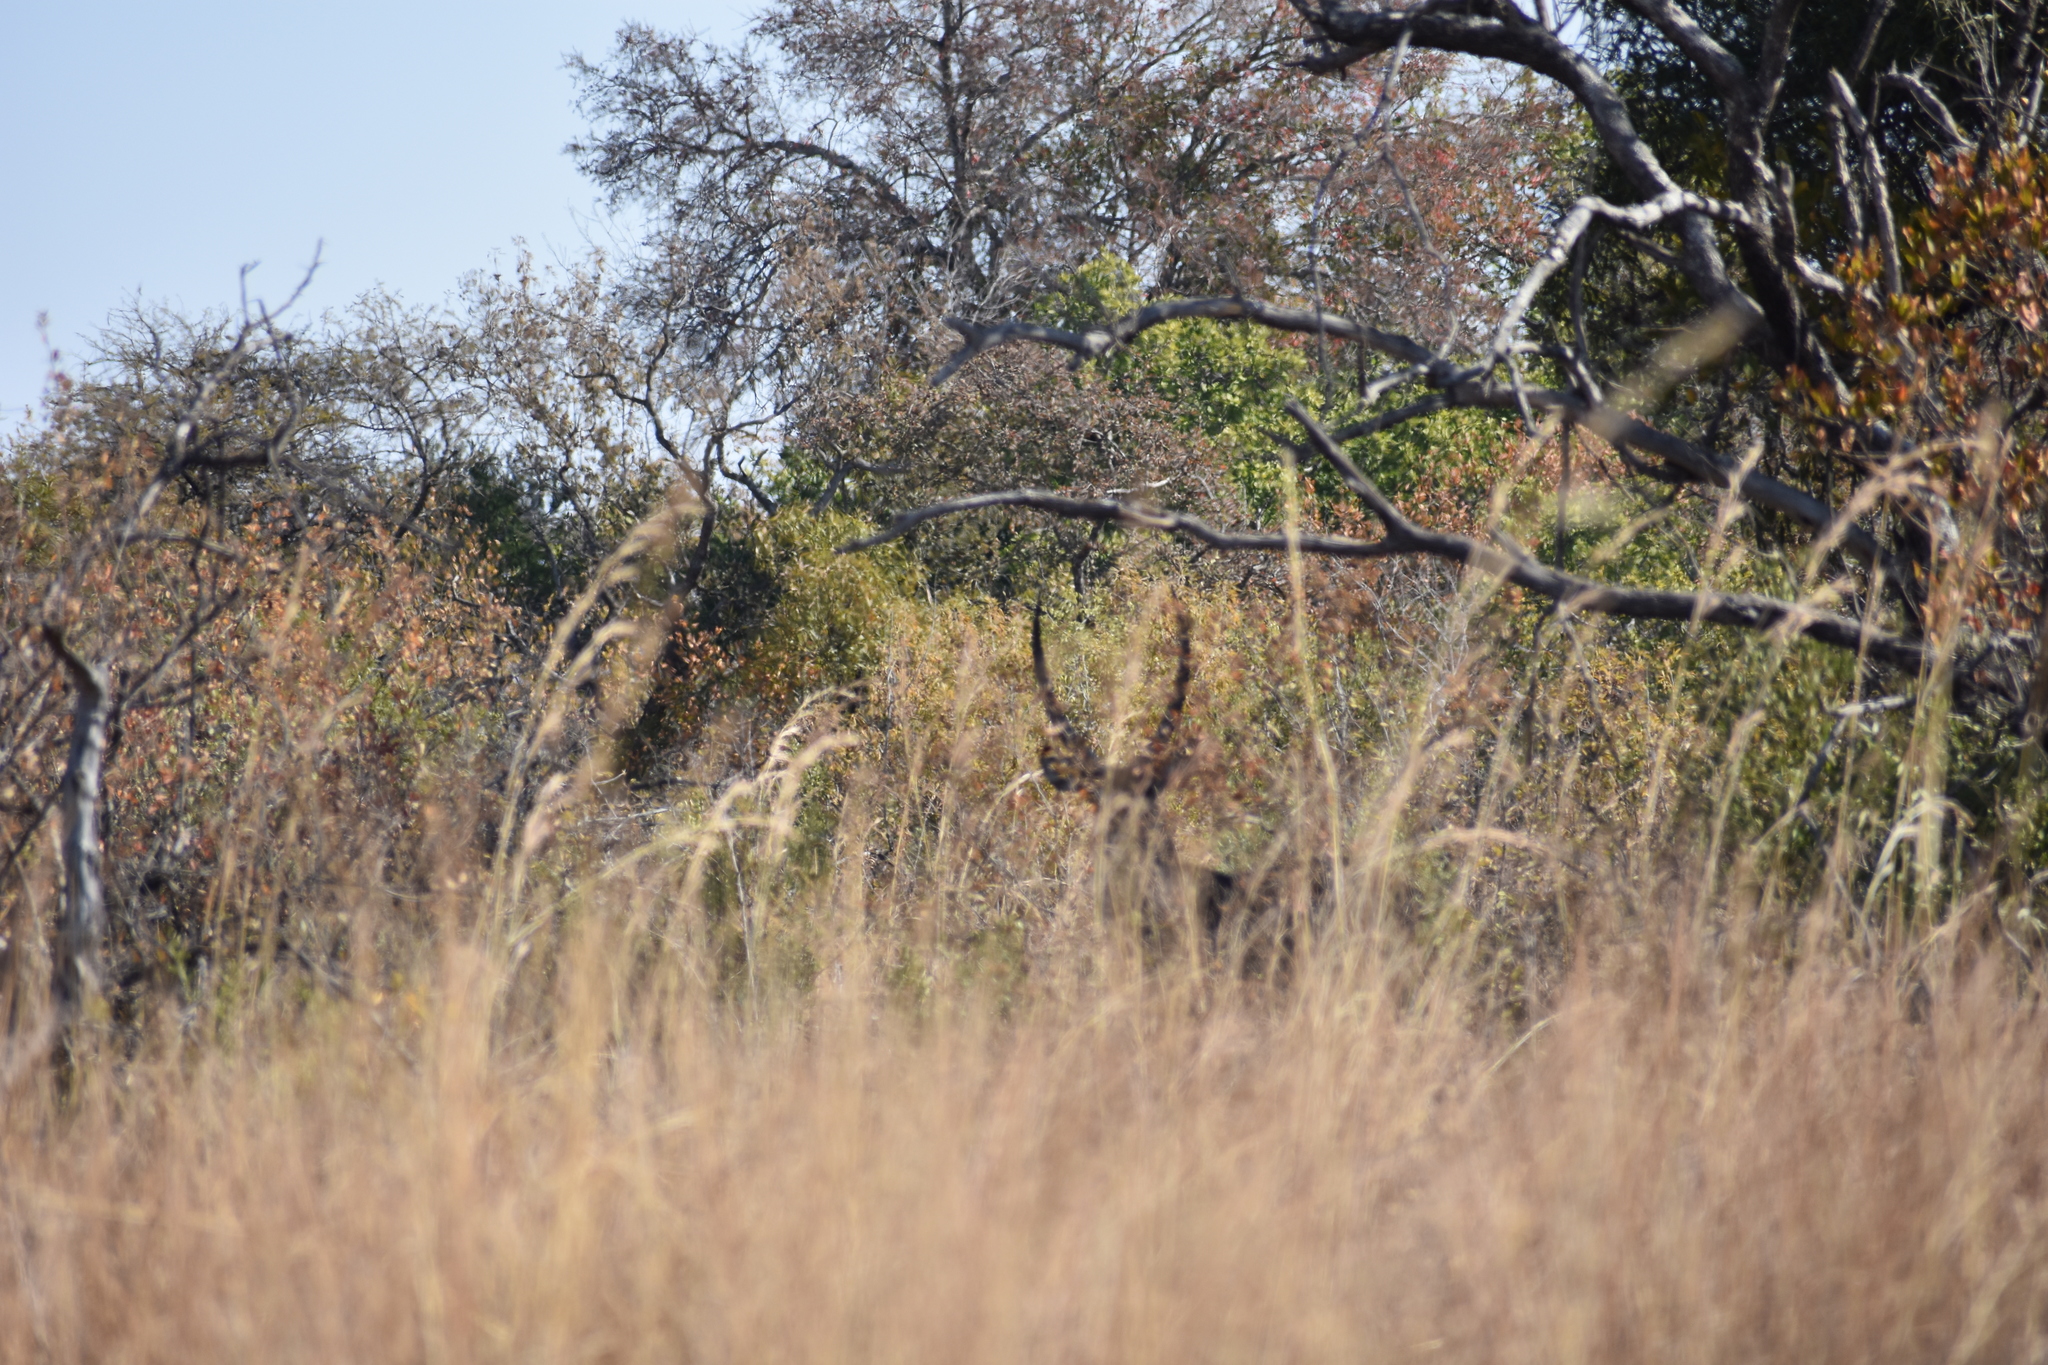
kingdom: Animalia
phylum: Chordata
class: Mammalia
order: Artiodactyla
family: Bovidae
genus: Kobus
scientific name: Kobus ellipsiprymnus
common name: Waterbuck
